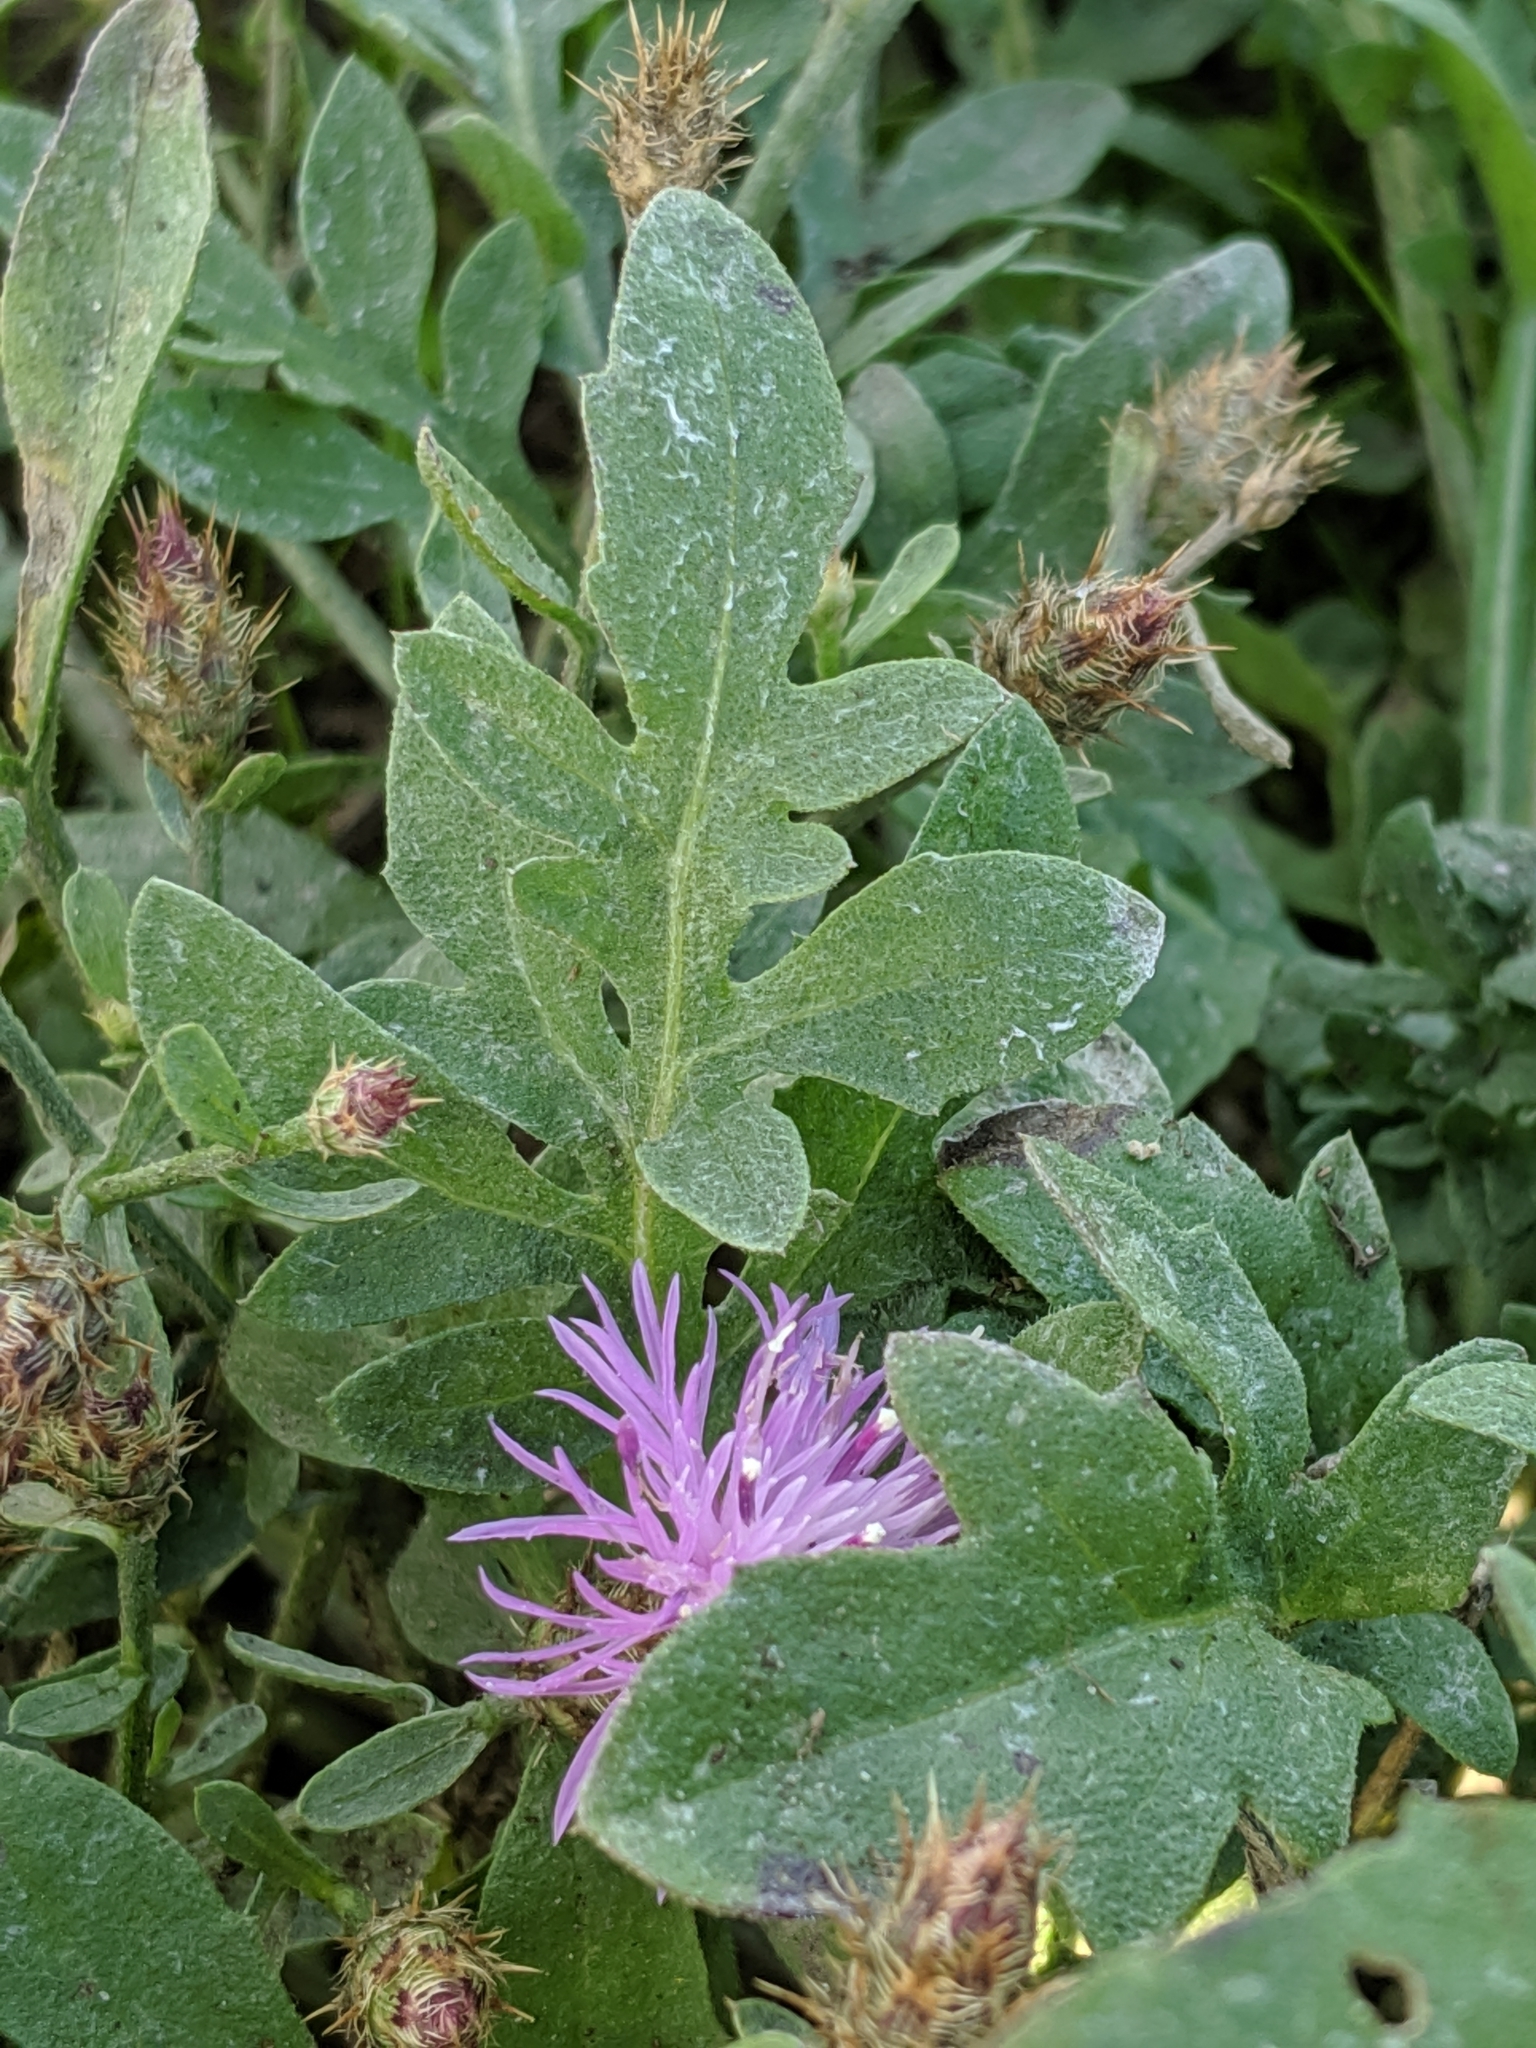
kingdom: Plantae
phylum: Tracheophyta
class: Magnoliopsida
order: Asterales
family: Asteraceae
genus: Centaurea
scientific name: Centaurea stoebe
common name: Spotted knapweed
